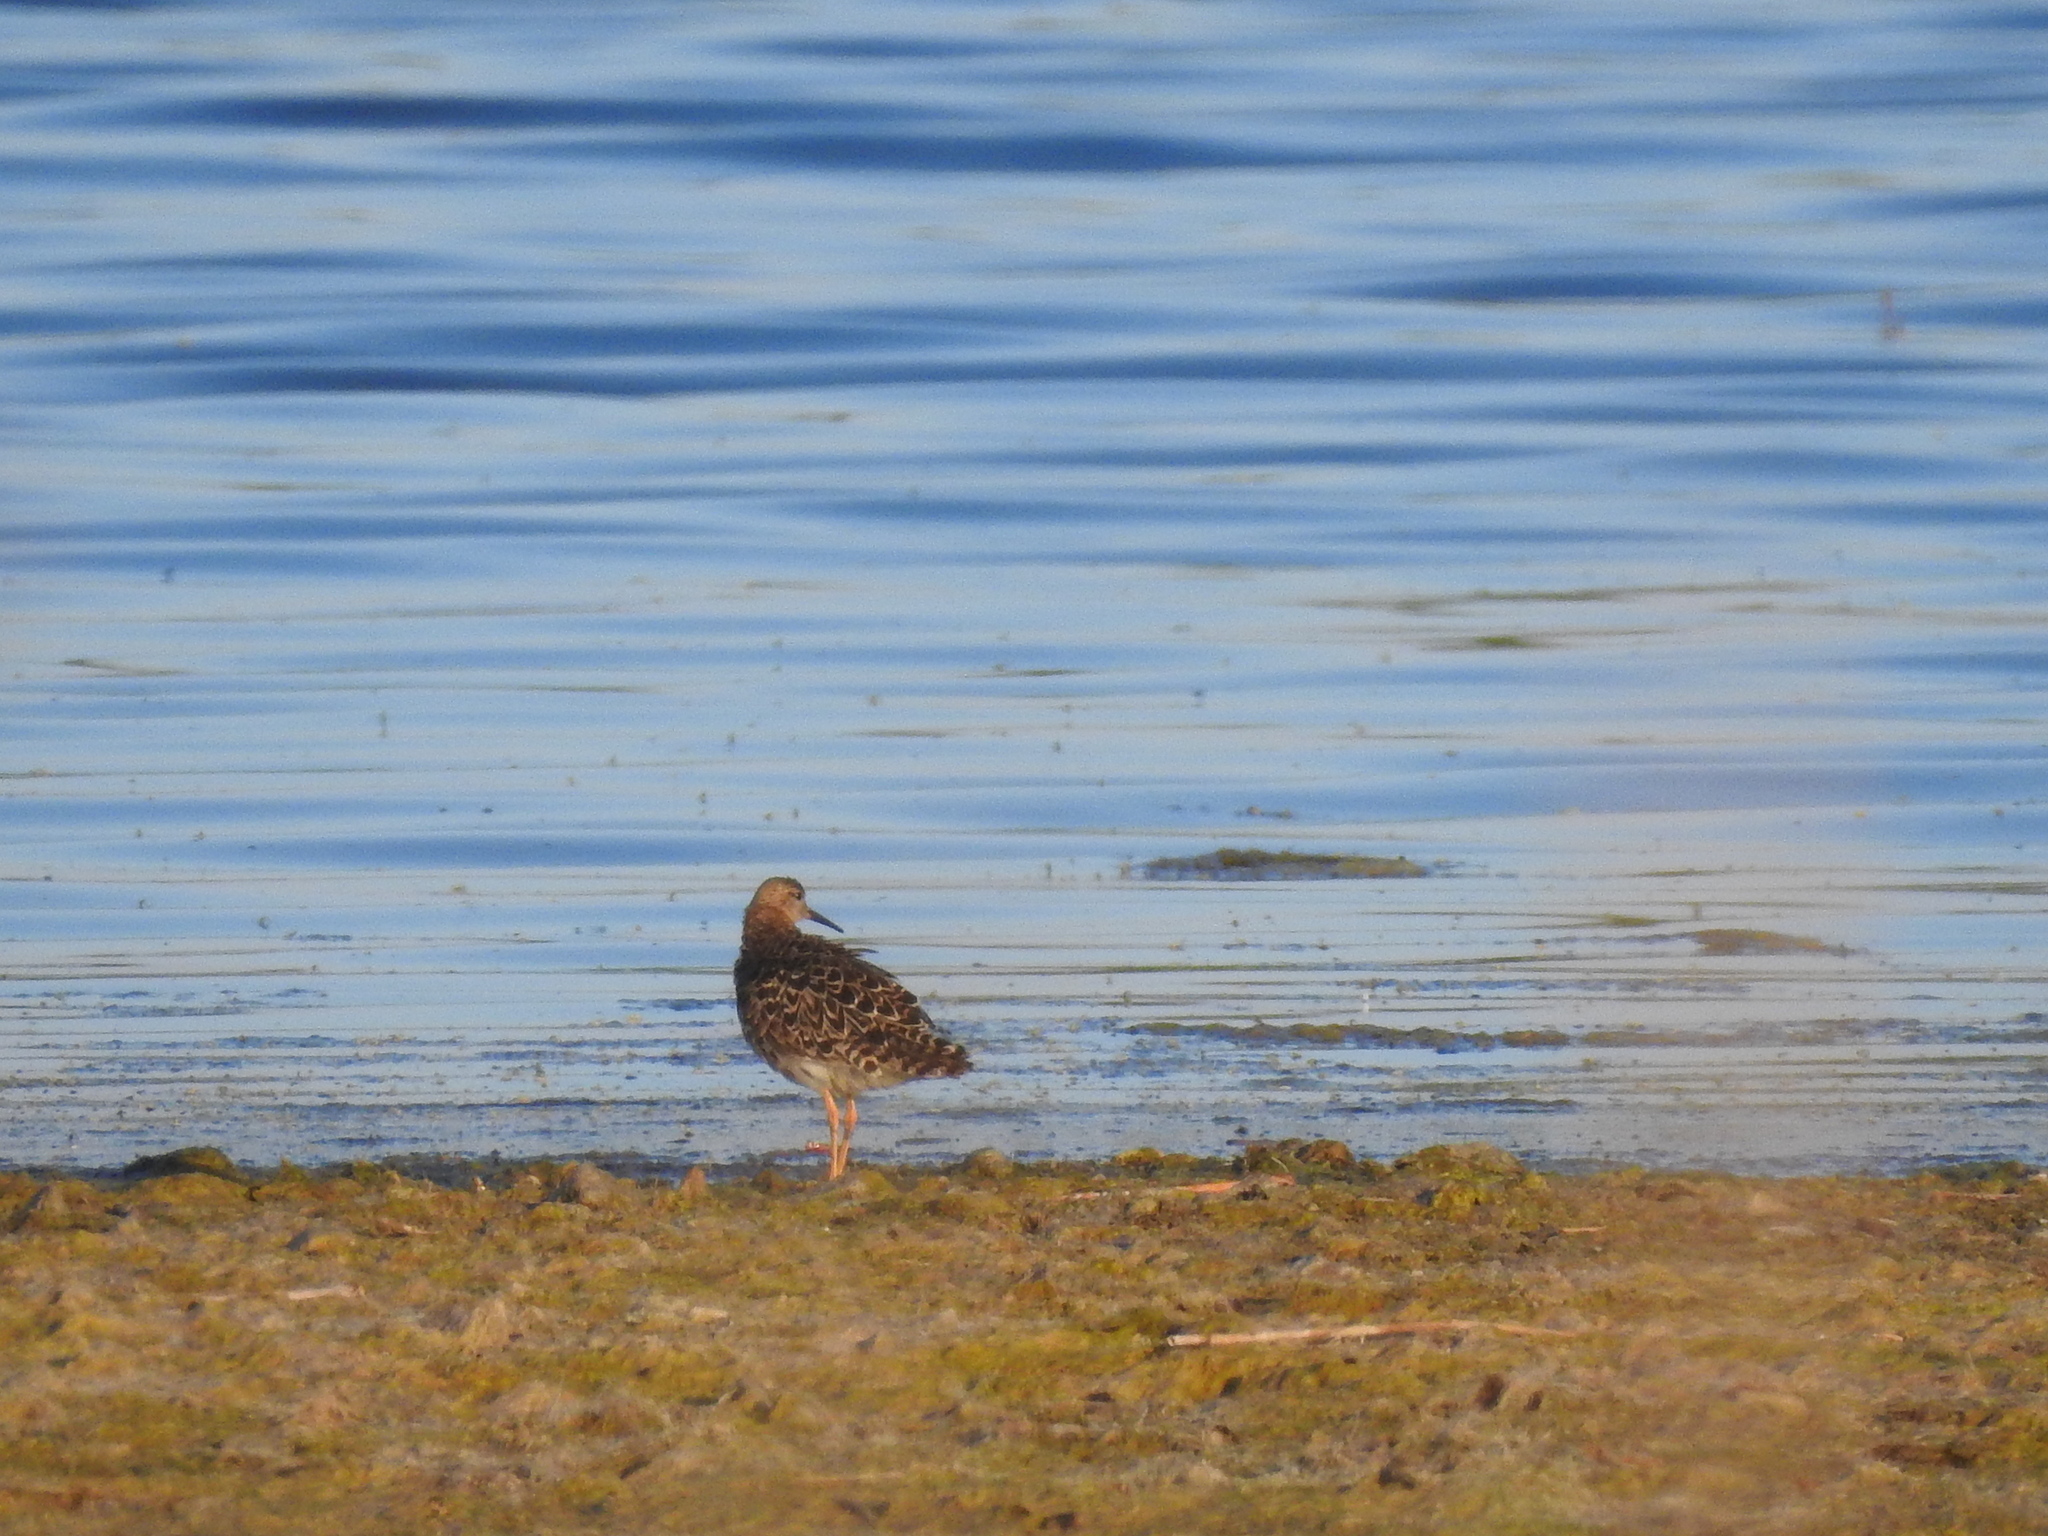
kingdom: Animalia
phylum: Chordata
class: Aves
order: Charadriiformes
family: Scolopacidae
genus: Calidris
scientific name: Calidris pugnax
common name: Ruff
